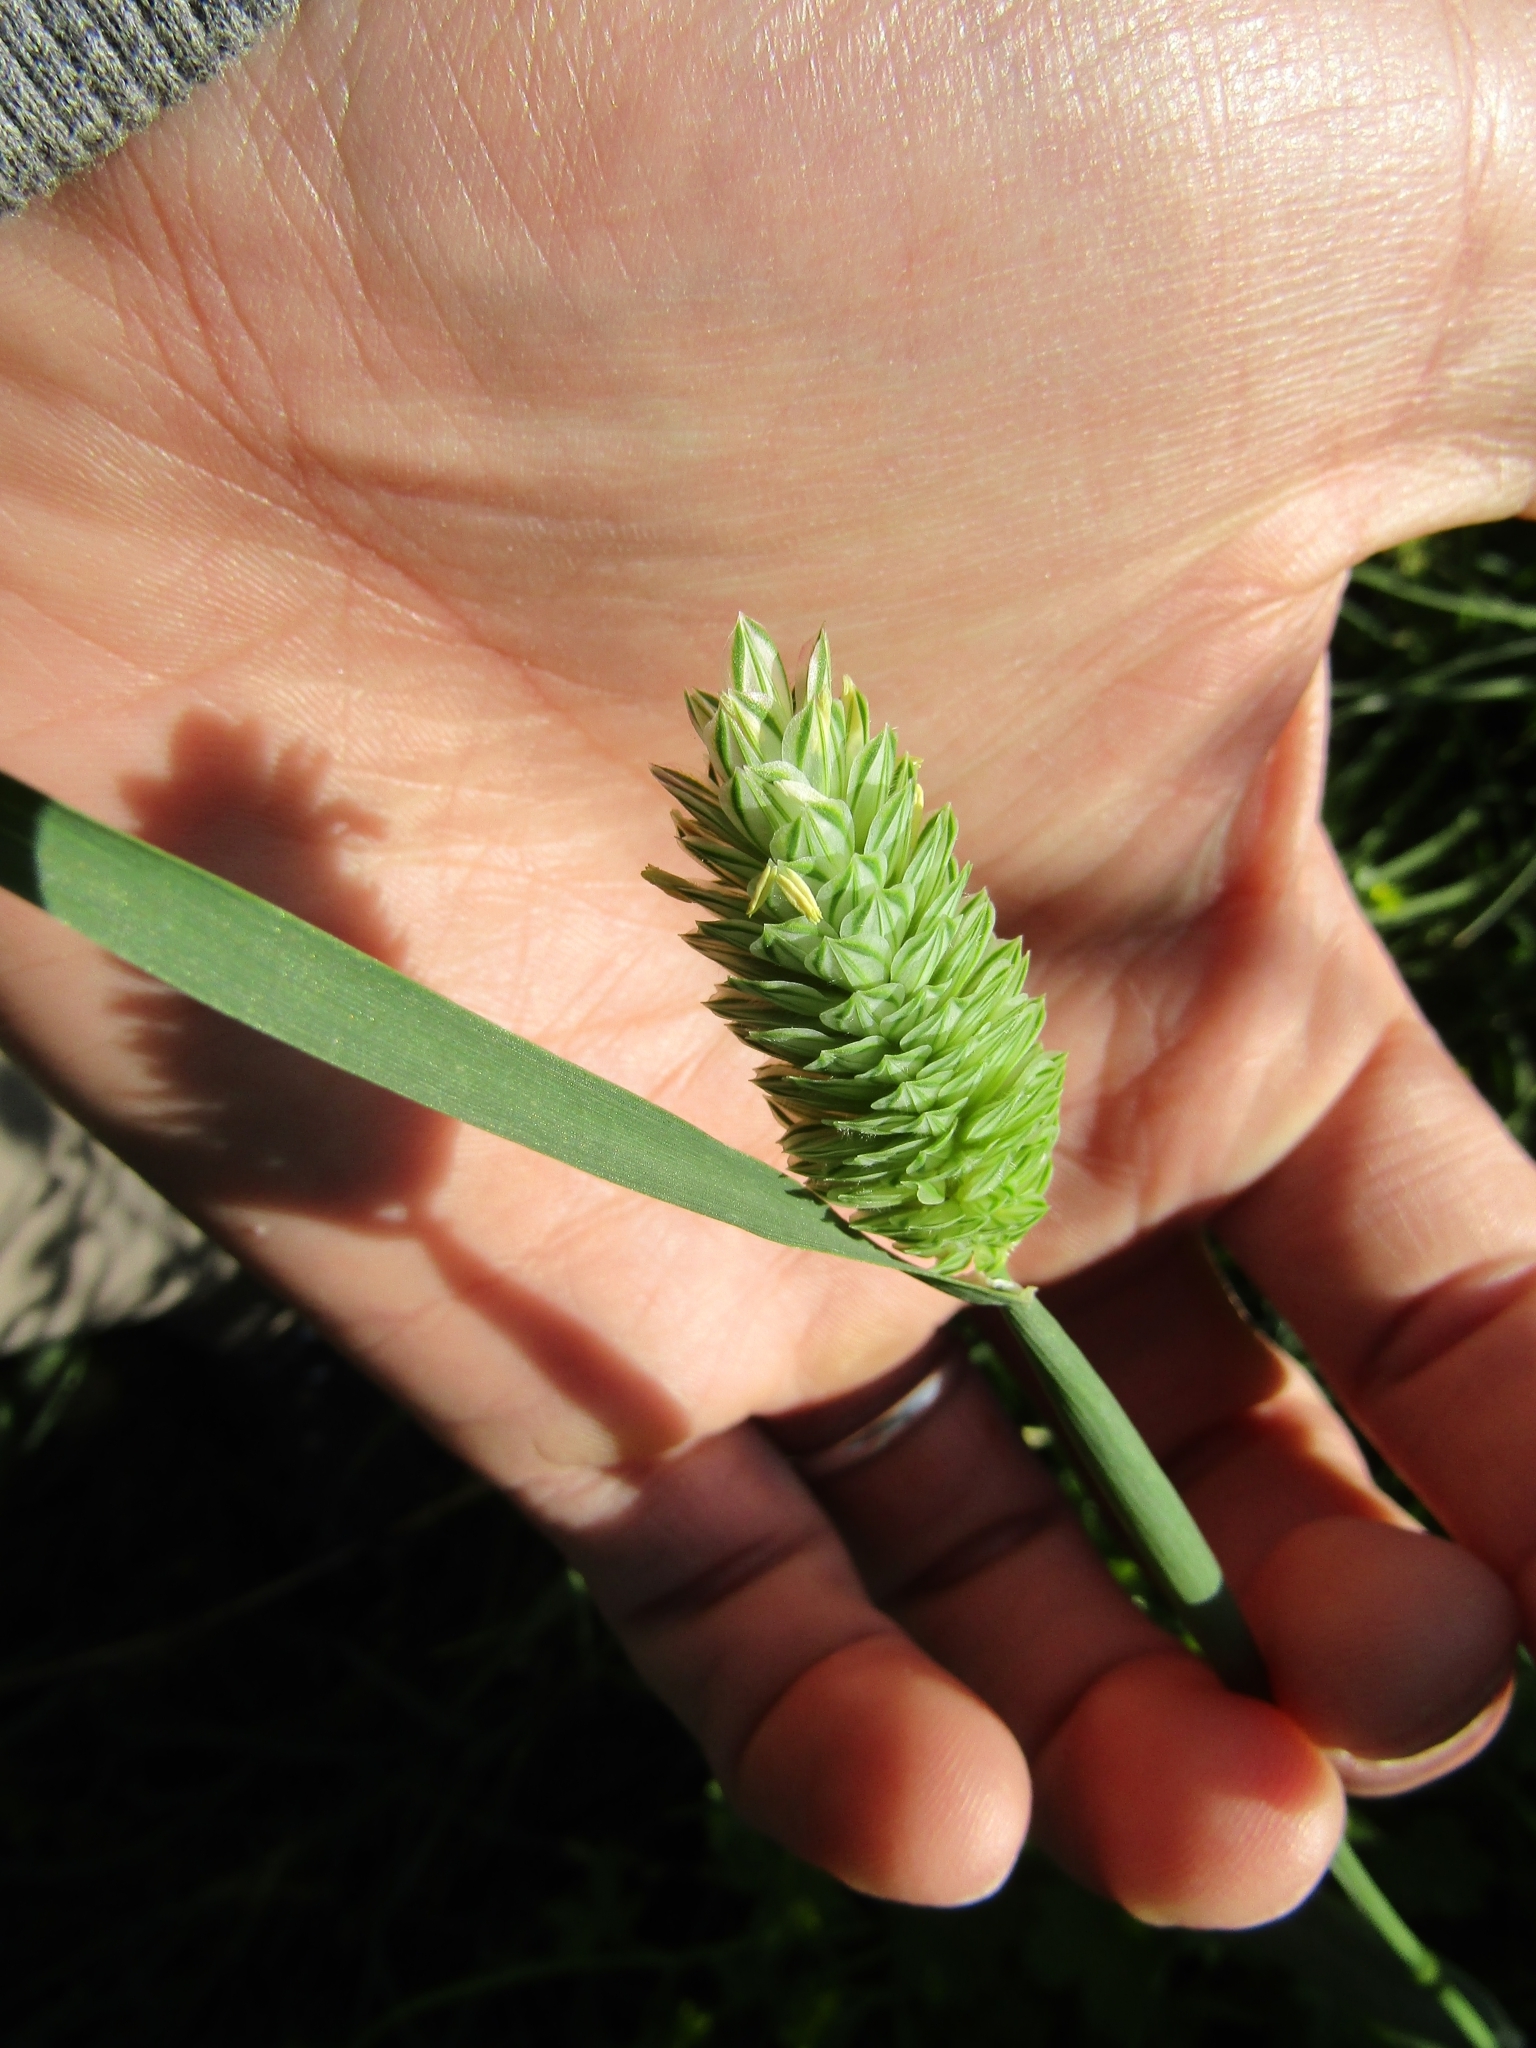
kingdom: Plantae
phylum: Tracheophyta
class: Liliopsida
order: Poales
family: Poaceae
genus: Phalaris
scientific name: Phalaris canariensis
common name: Annual canarygrass
